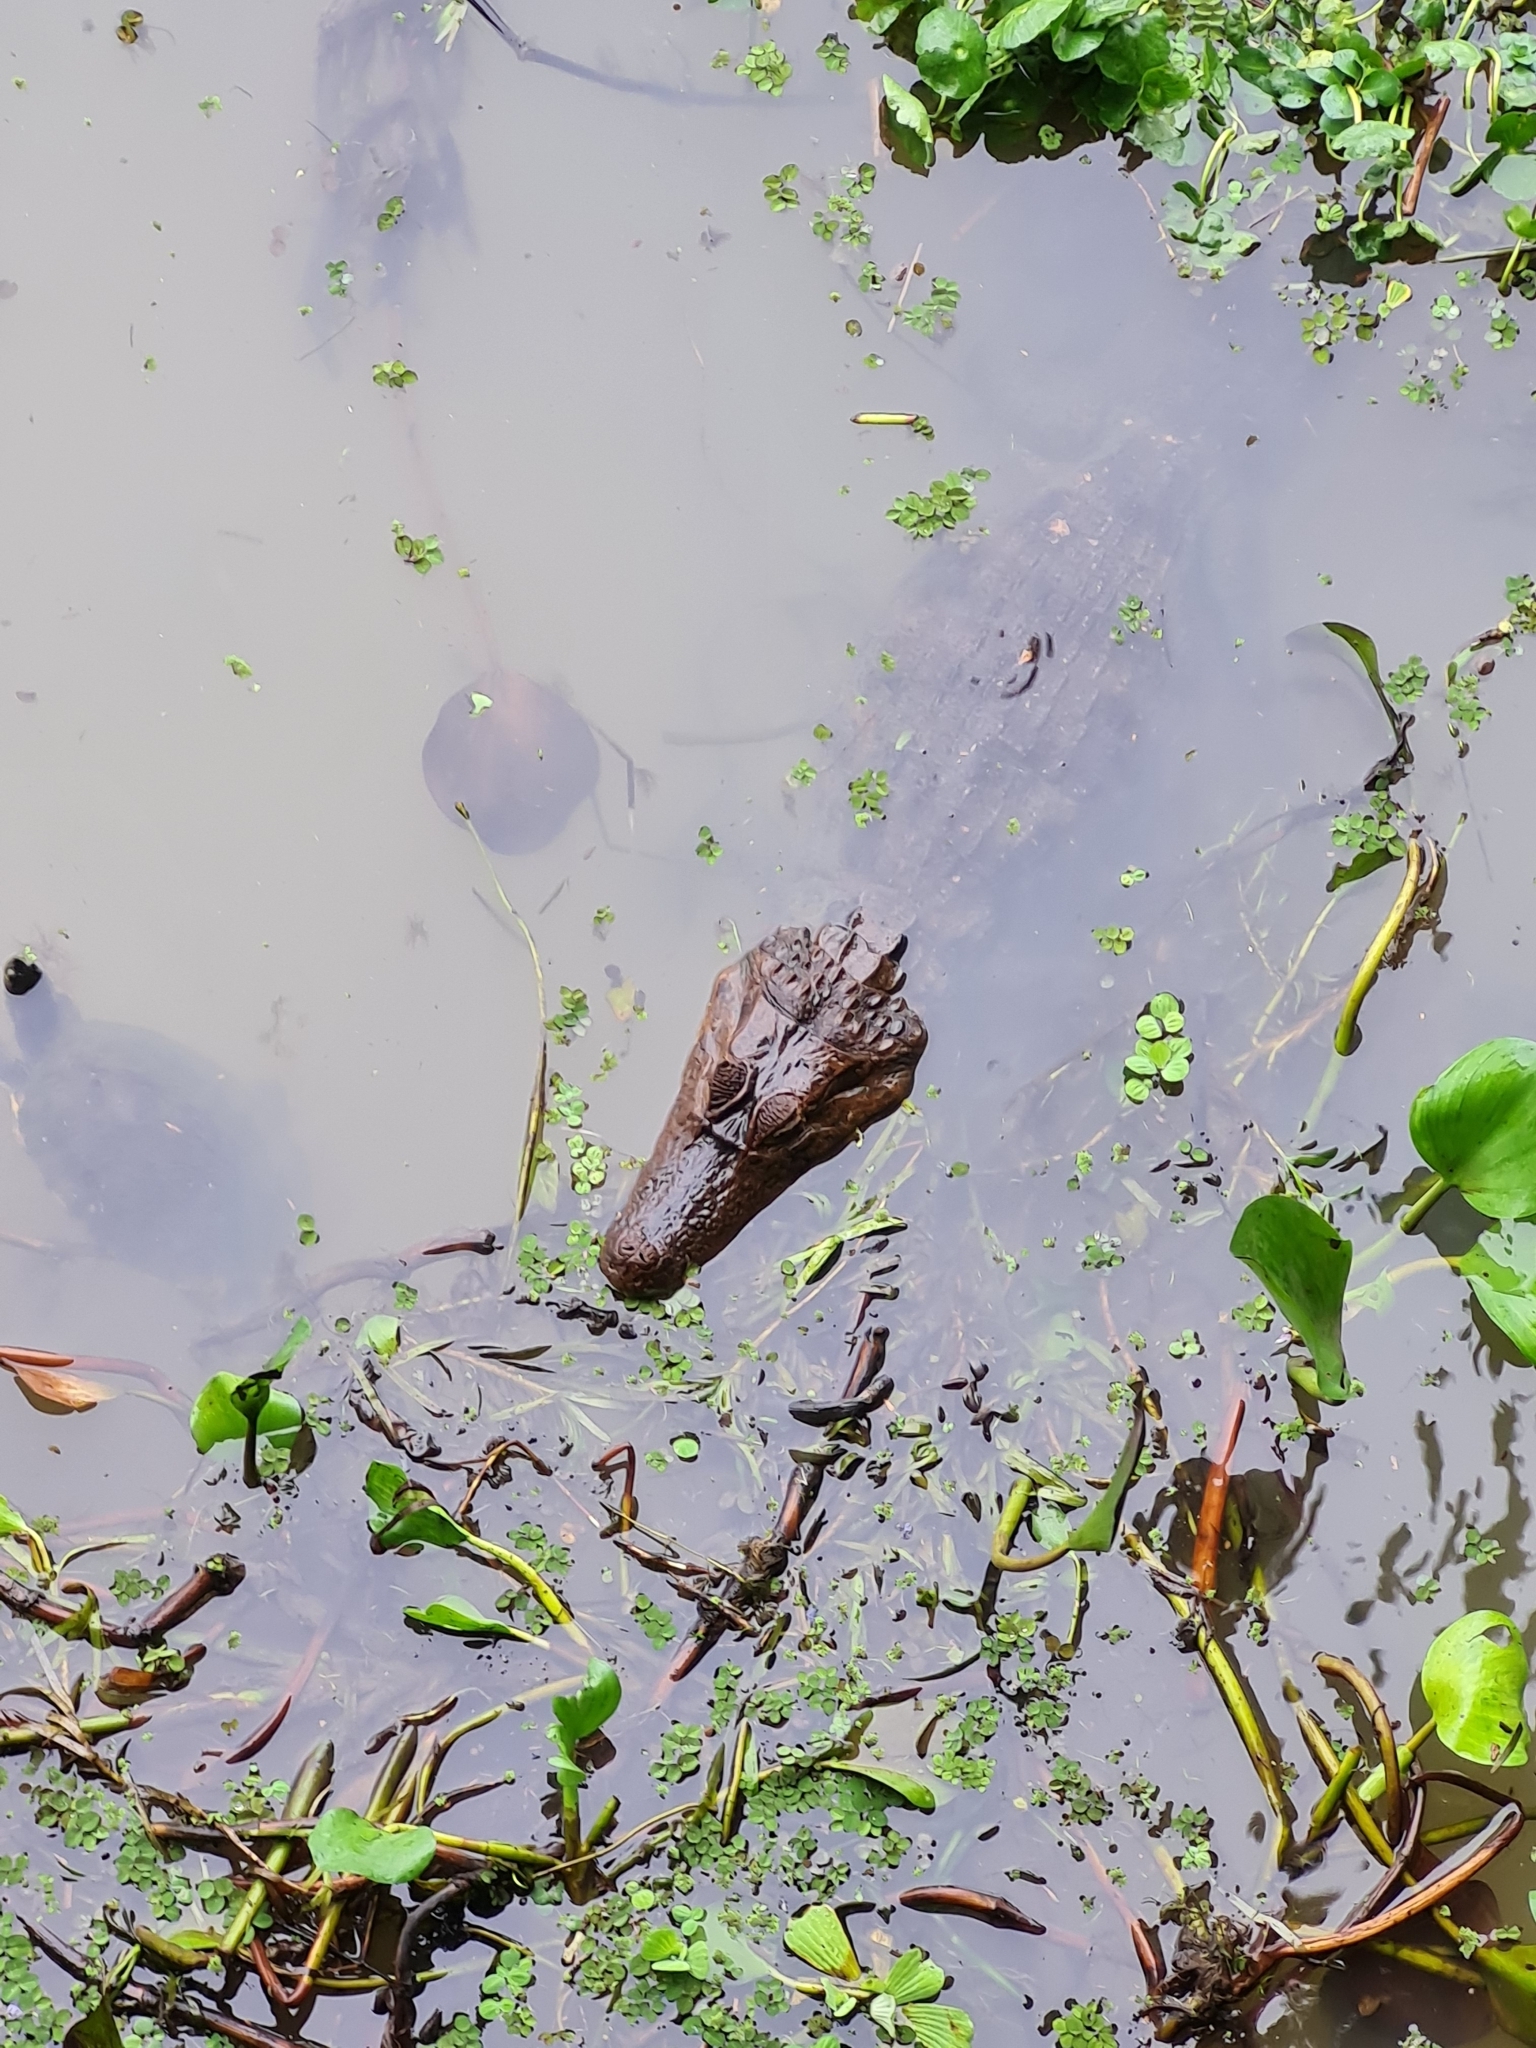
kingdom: Animalia
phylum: Chordata
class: Crocodylia
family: Alligatoridae
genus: Caiman
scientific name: Caiman crocodilus
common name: Common caiman
